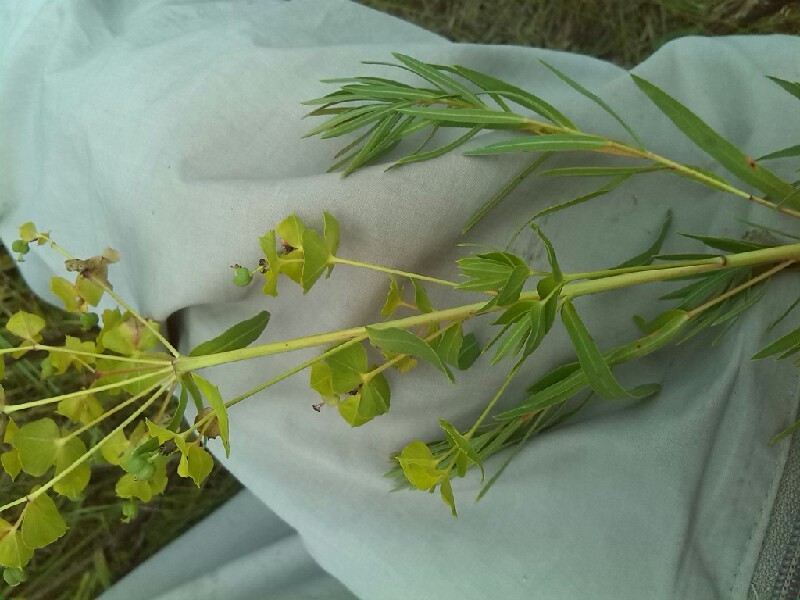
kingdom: Plantae
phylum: Tracheophyta
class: Magnoliopsida
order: Malpighiales
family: Euphorbiaceae
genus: Euphorbia
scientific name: Euphorbia saratoi
